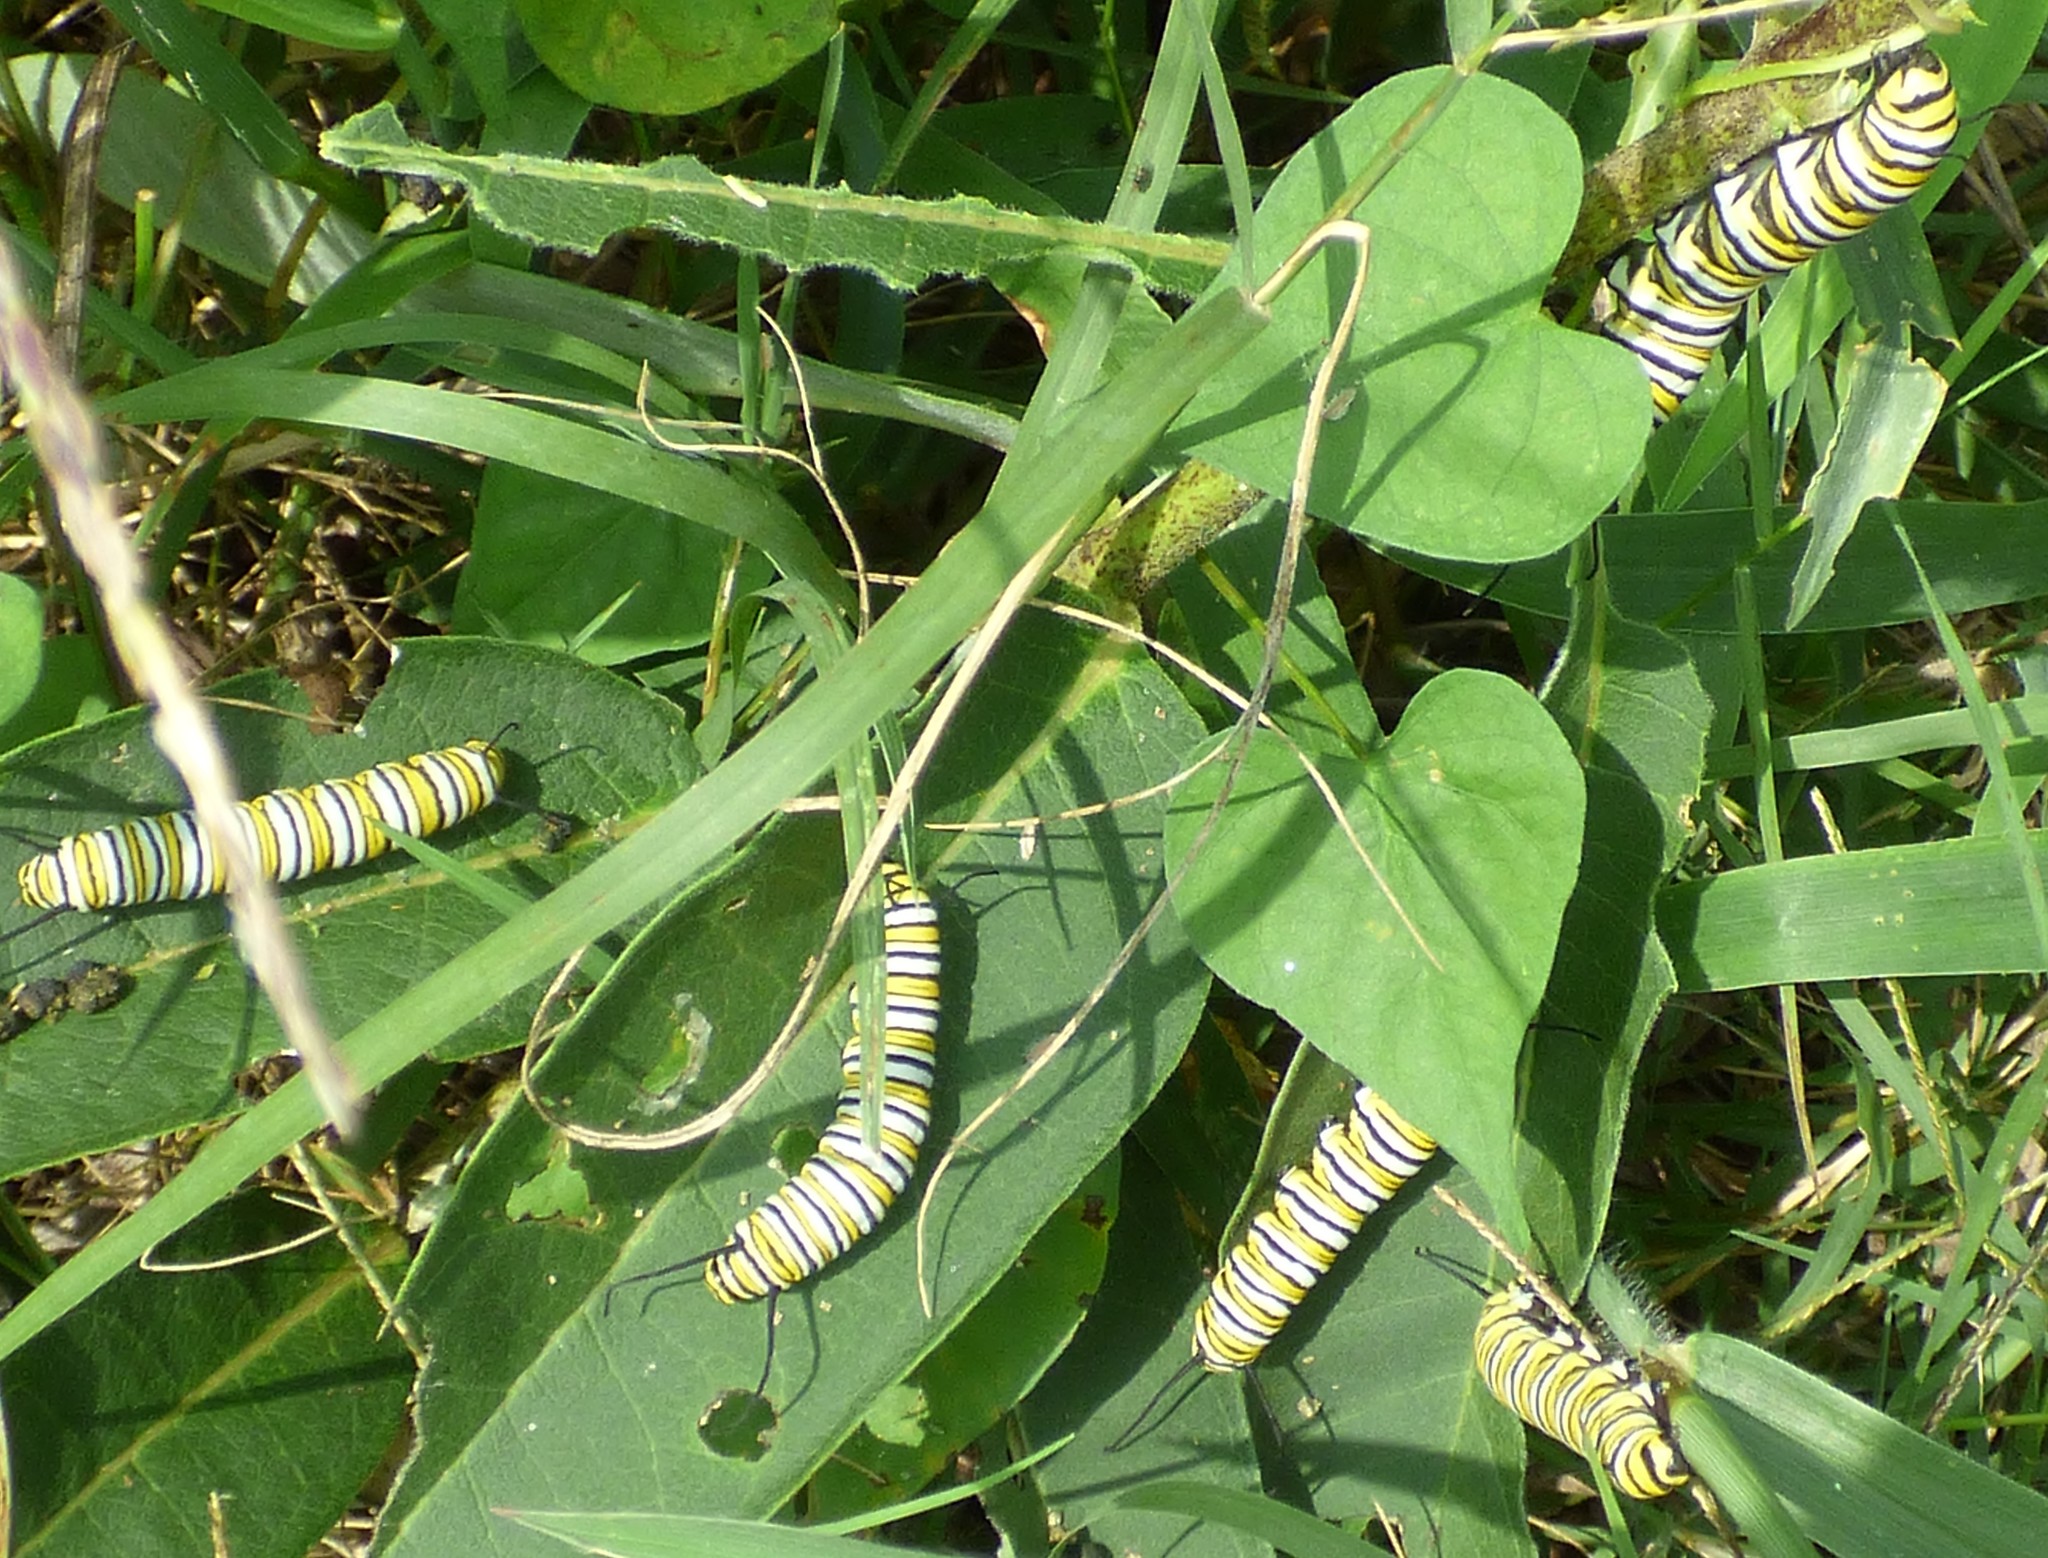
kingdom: Animalia
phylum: Arthropoda
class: Insecta
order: Lepidoptera
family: Nymphalidae
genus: Danaus
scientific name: Danaus plexippus
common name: Monarch
